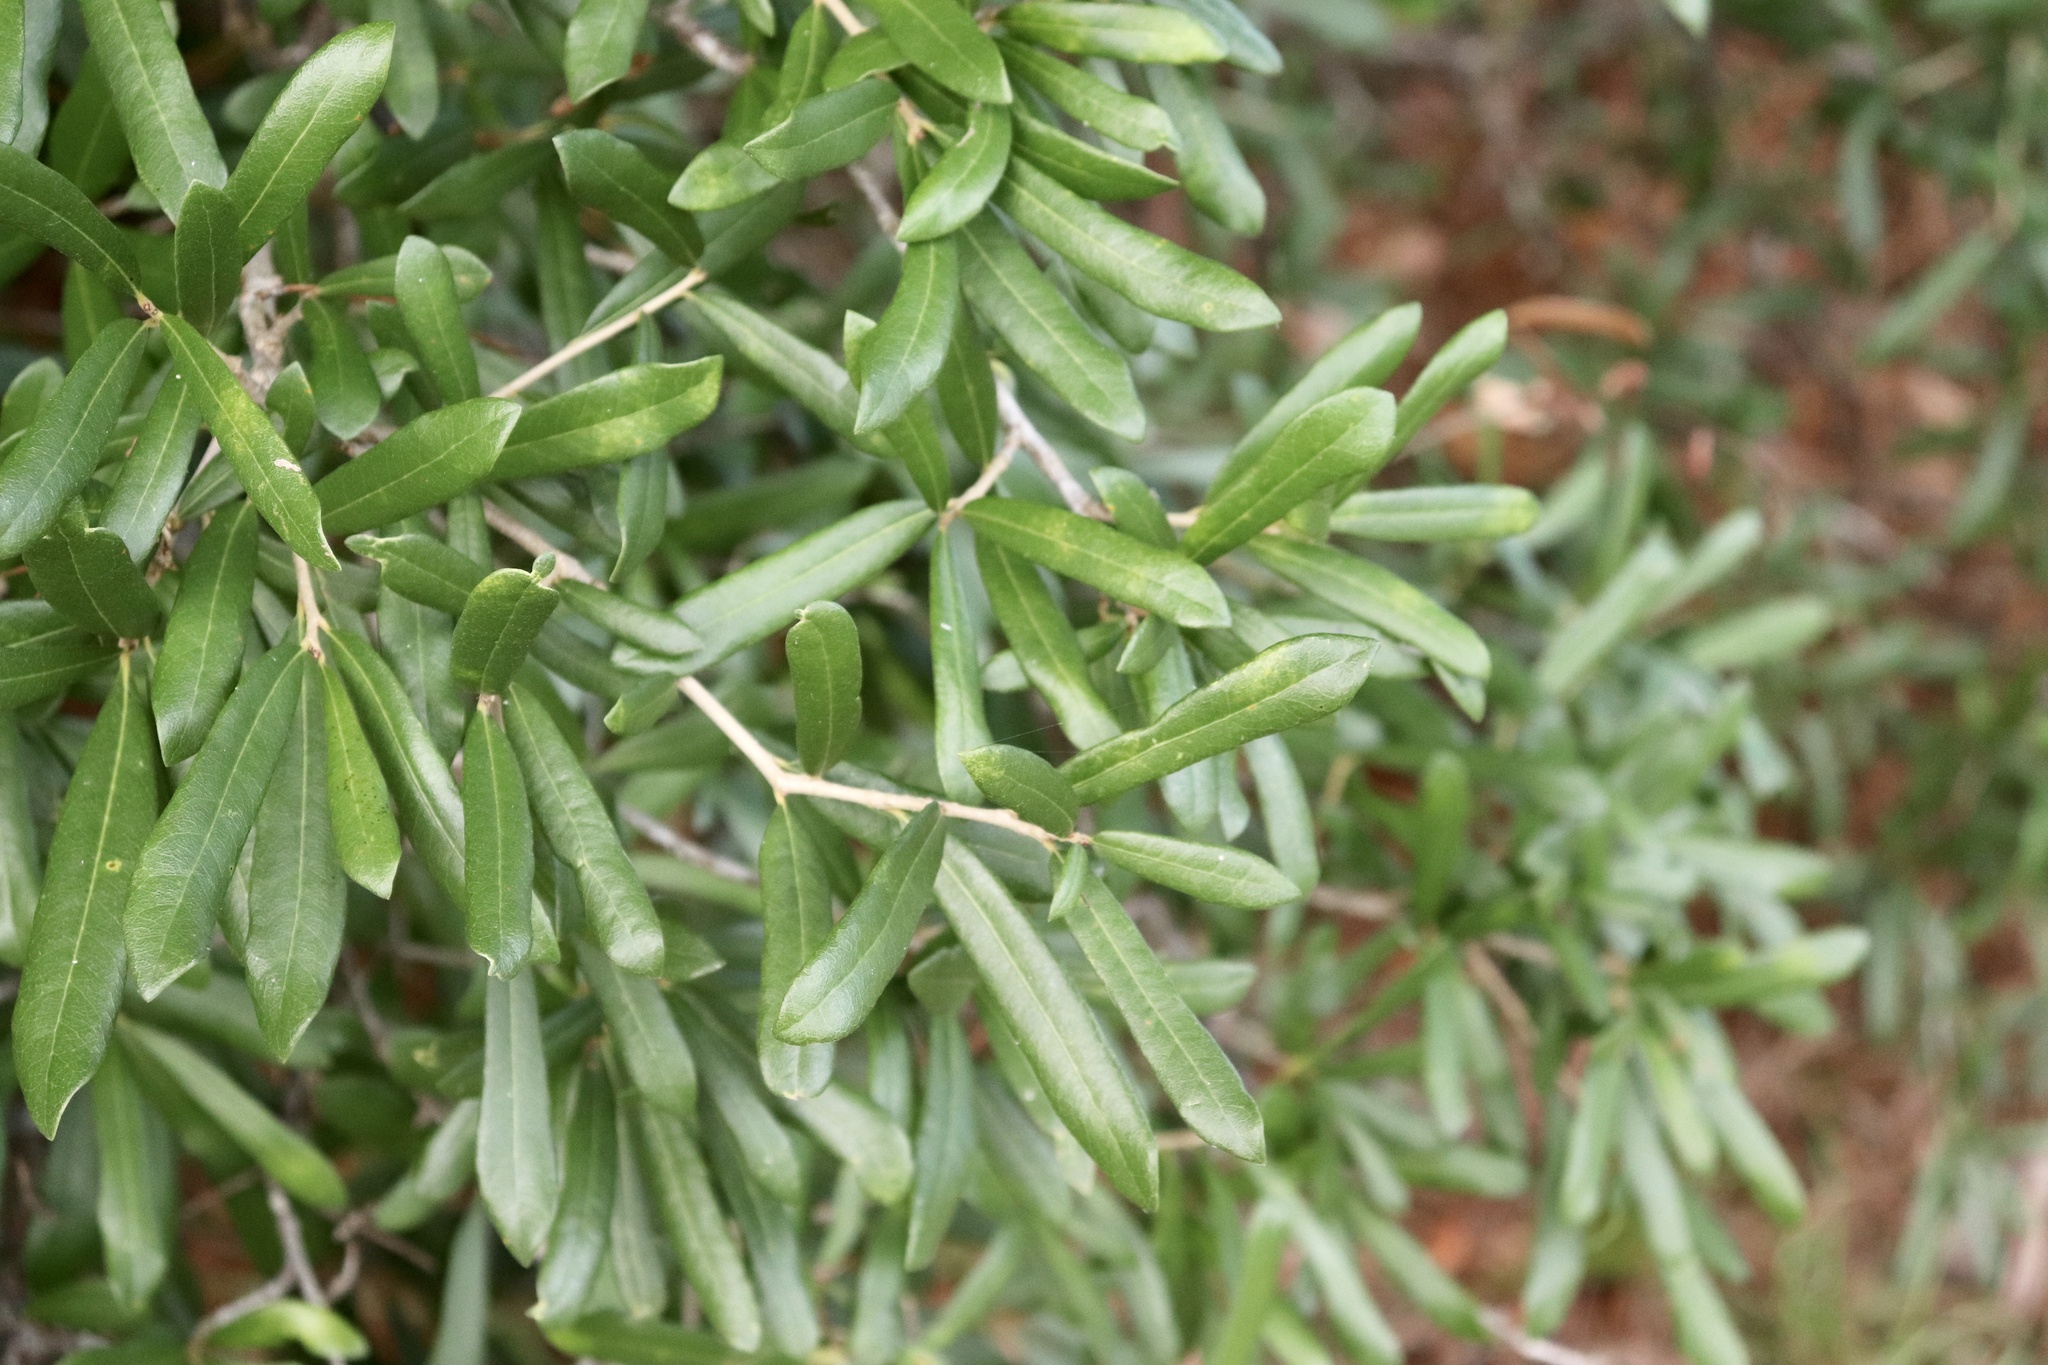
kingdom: Plantae
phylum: Tracheophyta
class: Magnoliopsida
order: Fagales
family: Fagaceae
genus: Quercus
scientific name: Quercus virginiana
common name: Southern live oak
